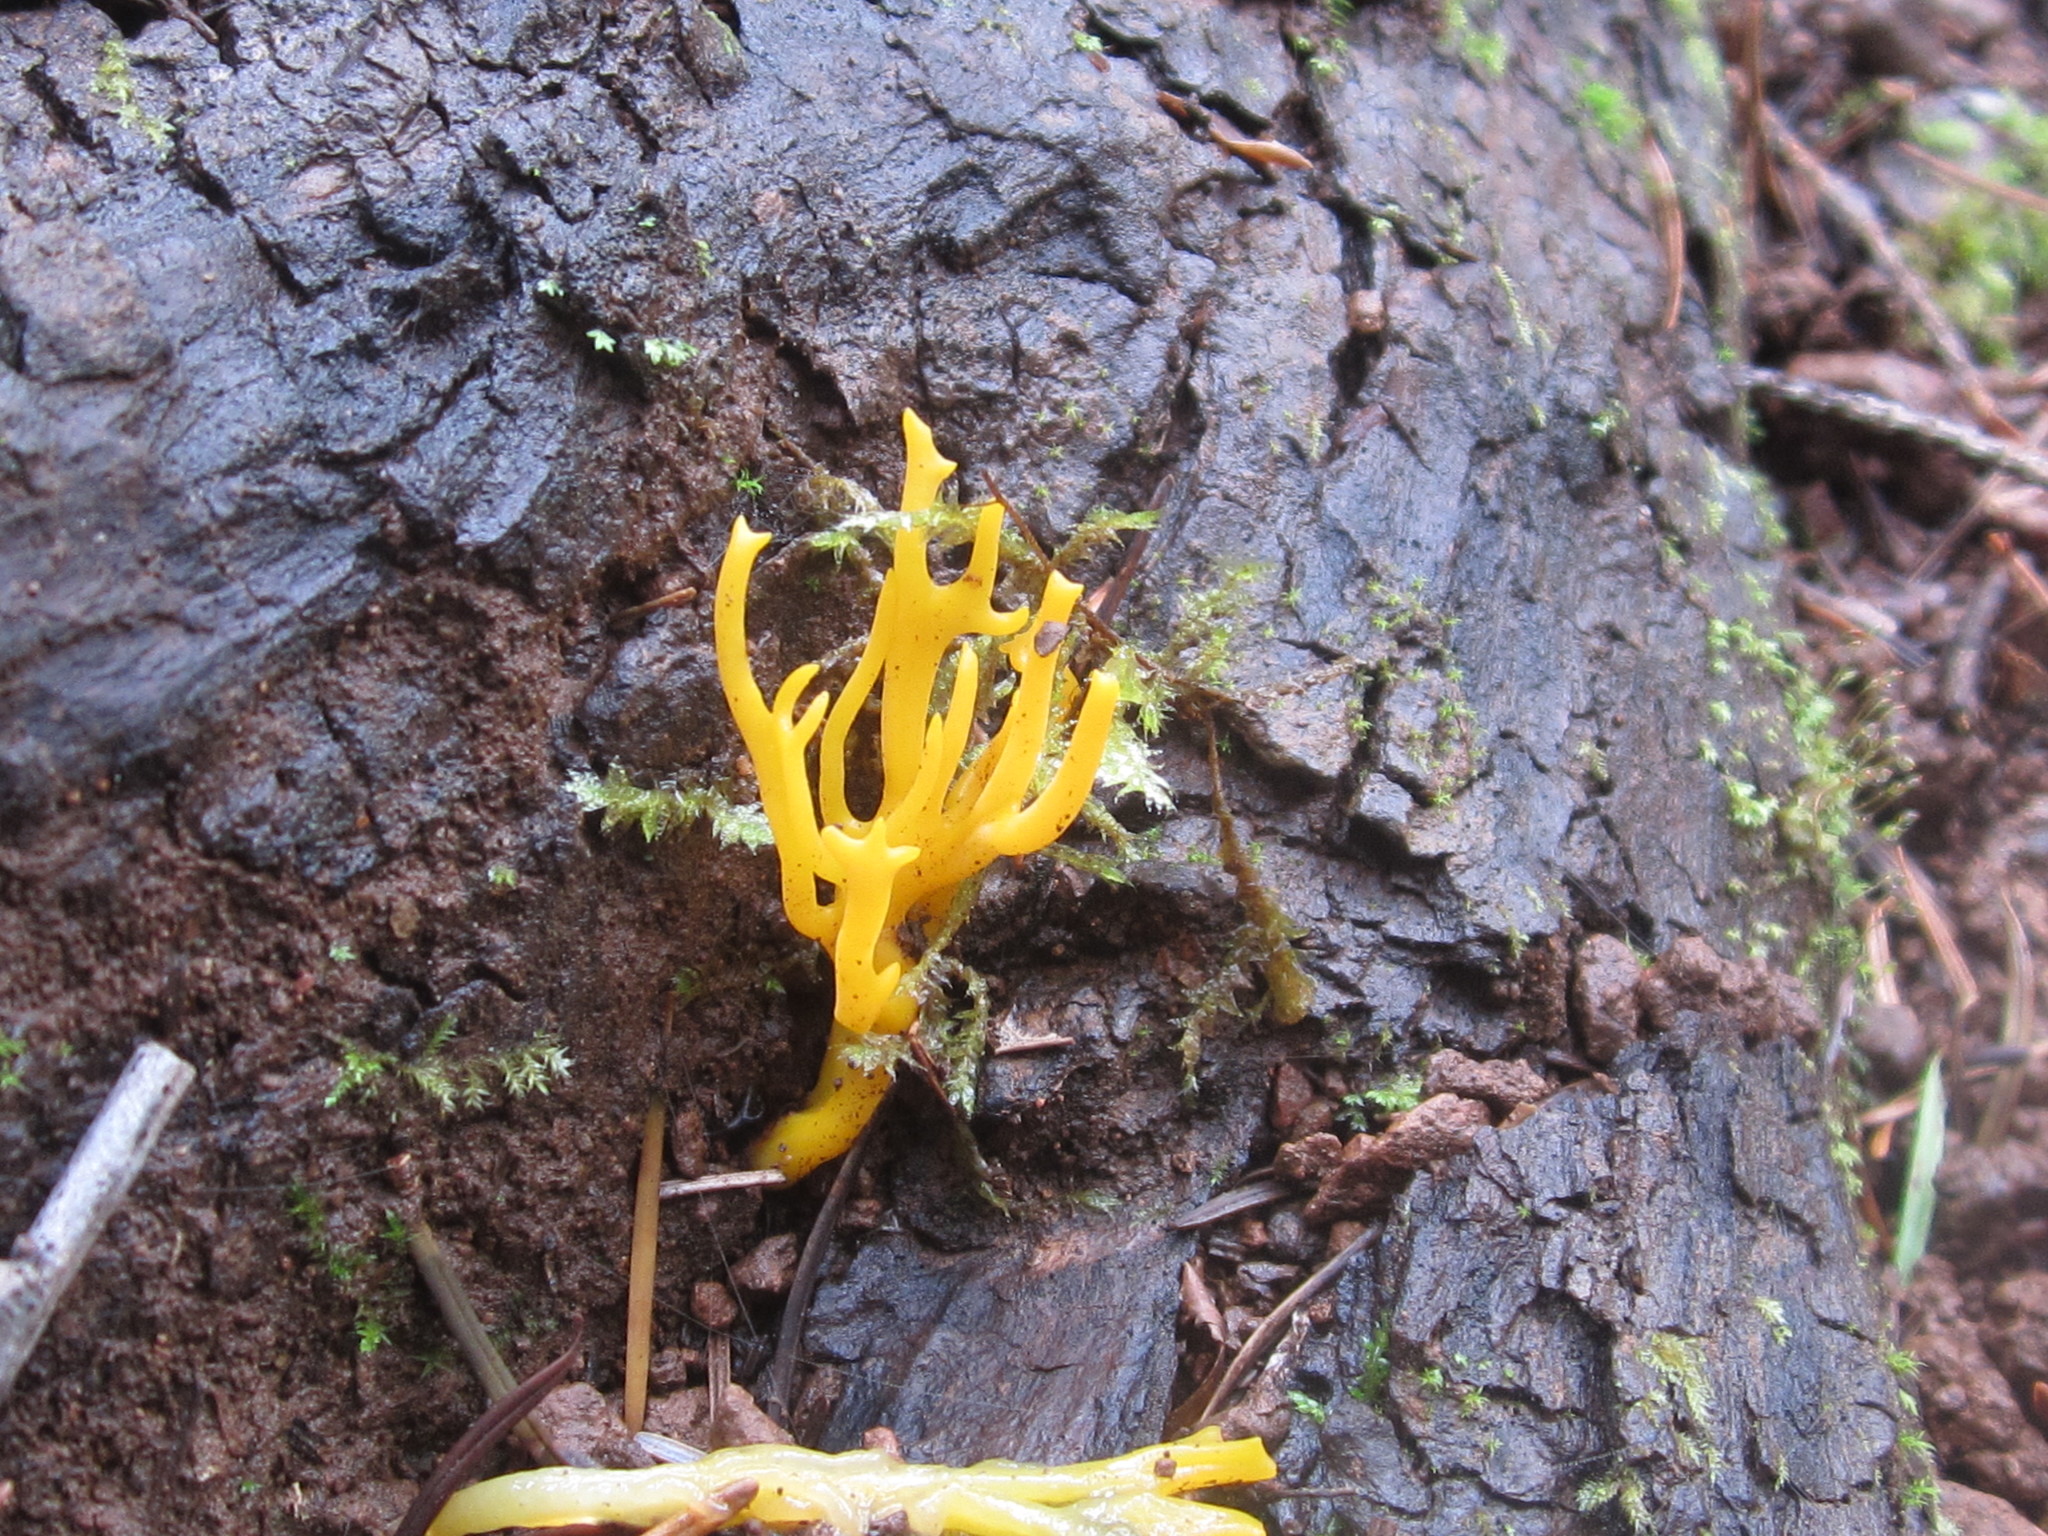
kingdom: Fungi
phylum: Basidiomycota
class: Dacrymycetes
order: Dacrymycetales
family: Dacrymycetaceae
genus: Calocera
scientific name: Calocera viscosa
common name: Yellow stagshorn
